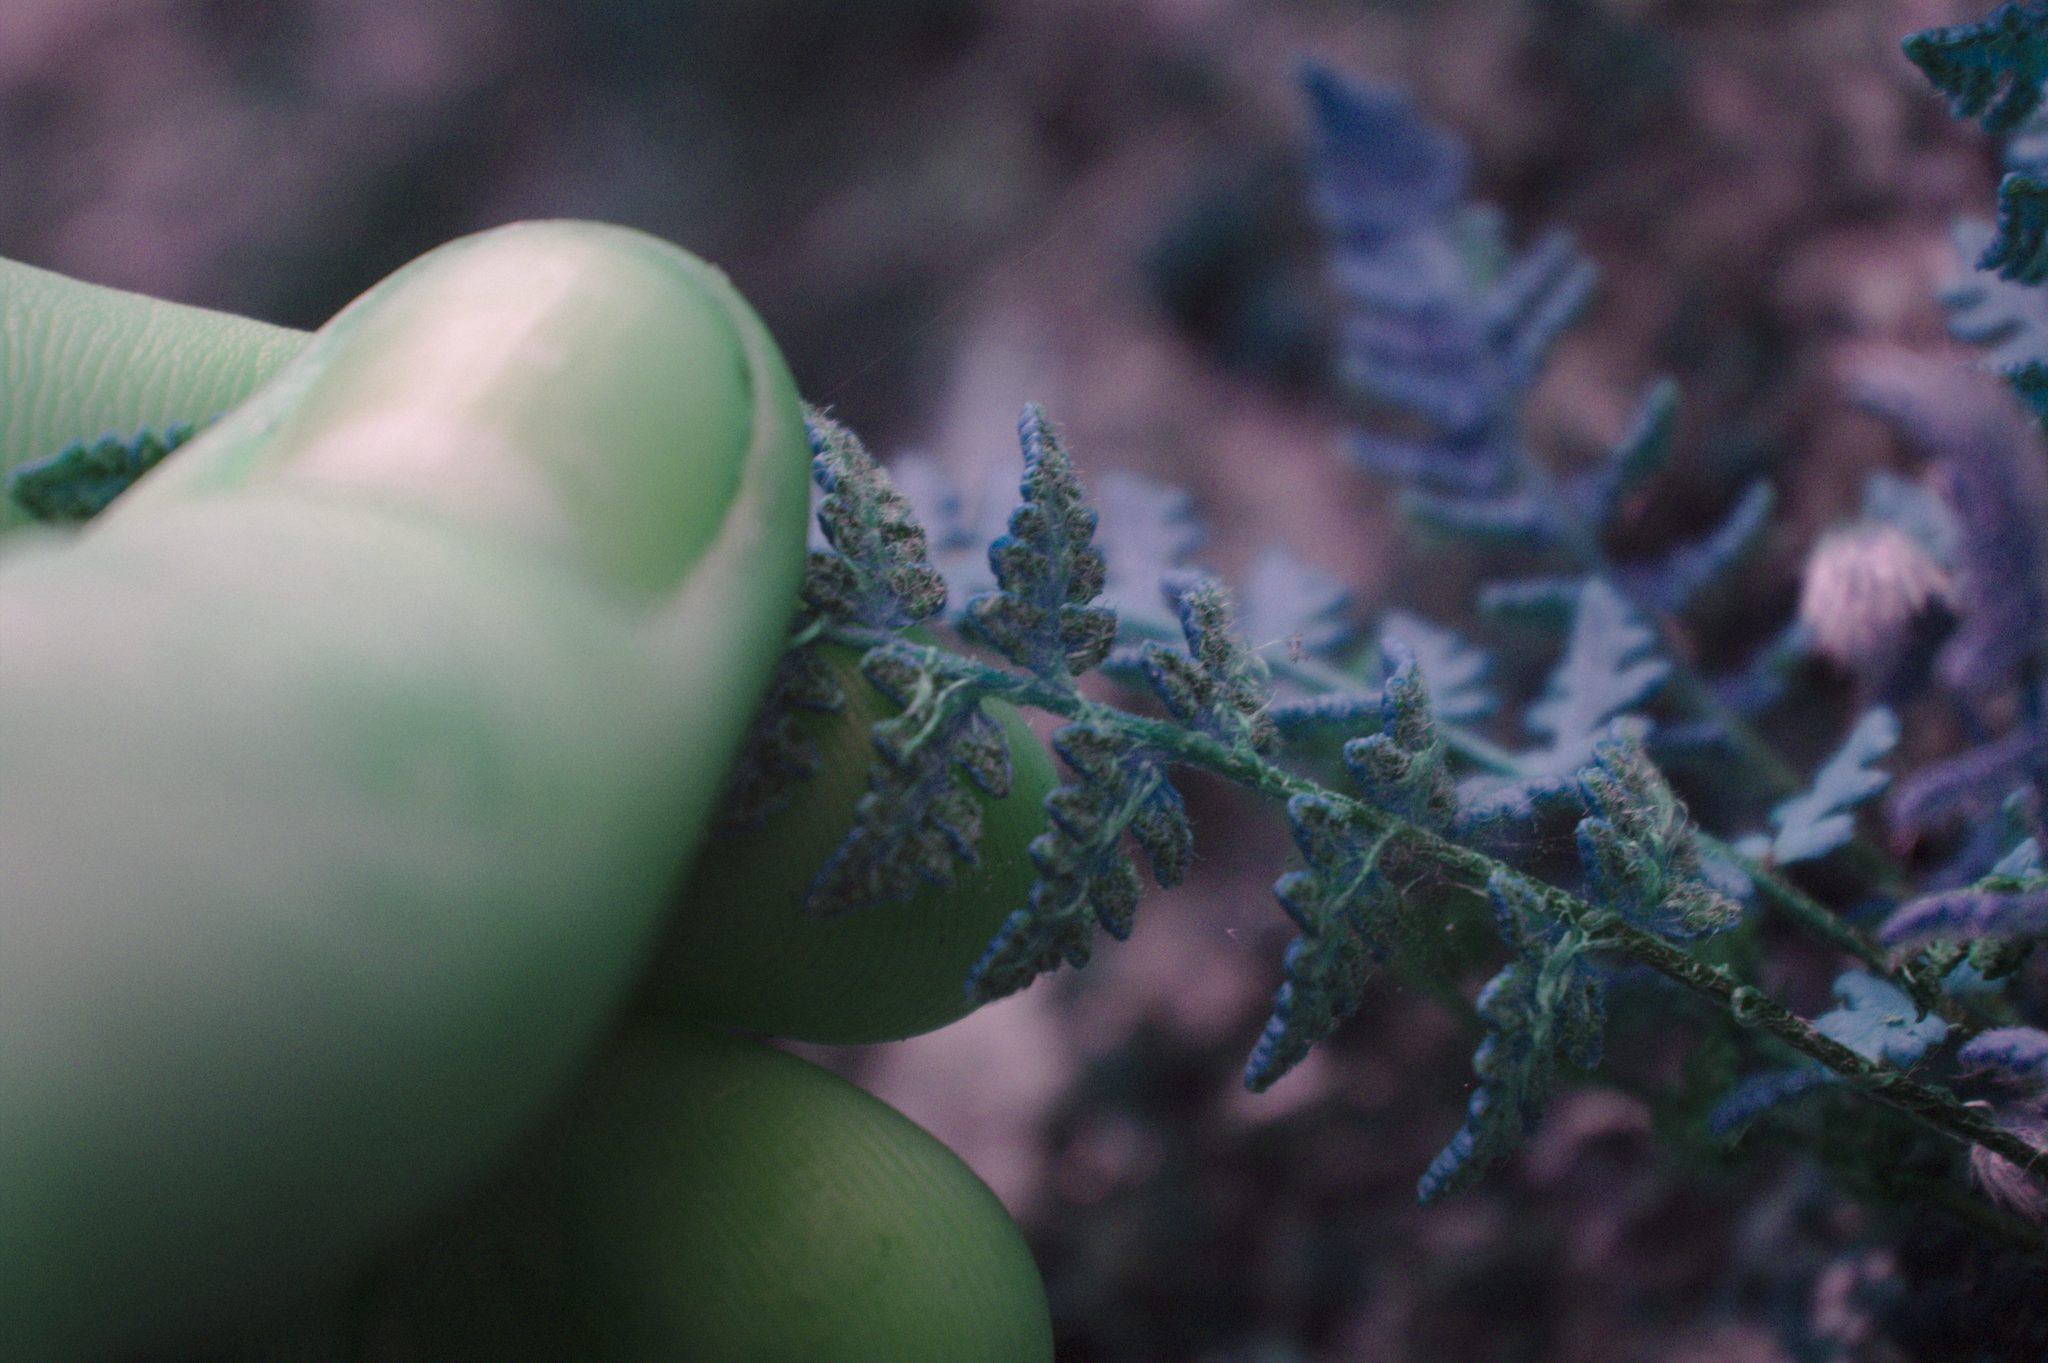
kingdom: Plantae
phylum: Tracheophyta
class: Polypodiopsida
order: Polypodiales
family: Woodsiaceae
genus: Woodsia
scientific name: Woodsia ilvensis
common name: Fragrant woodsia
